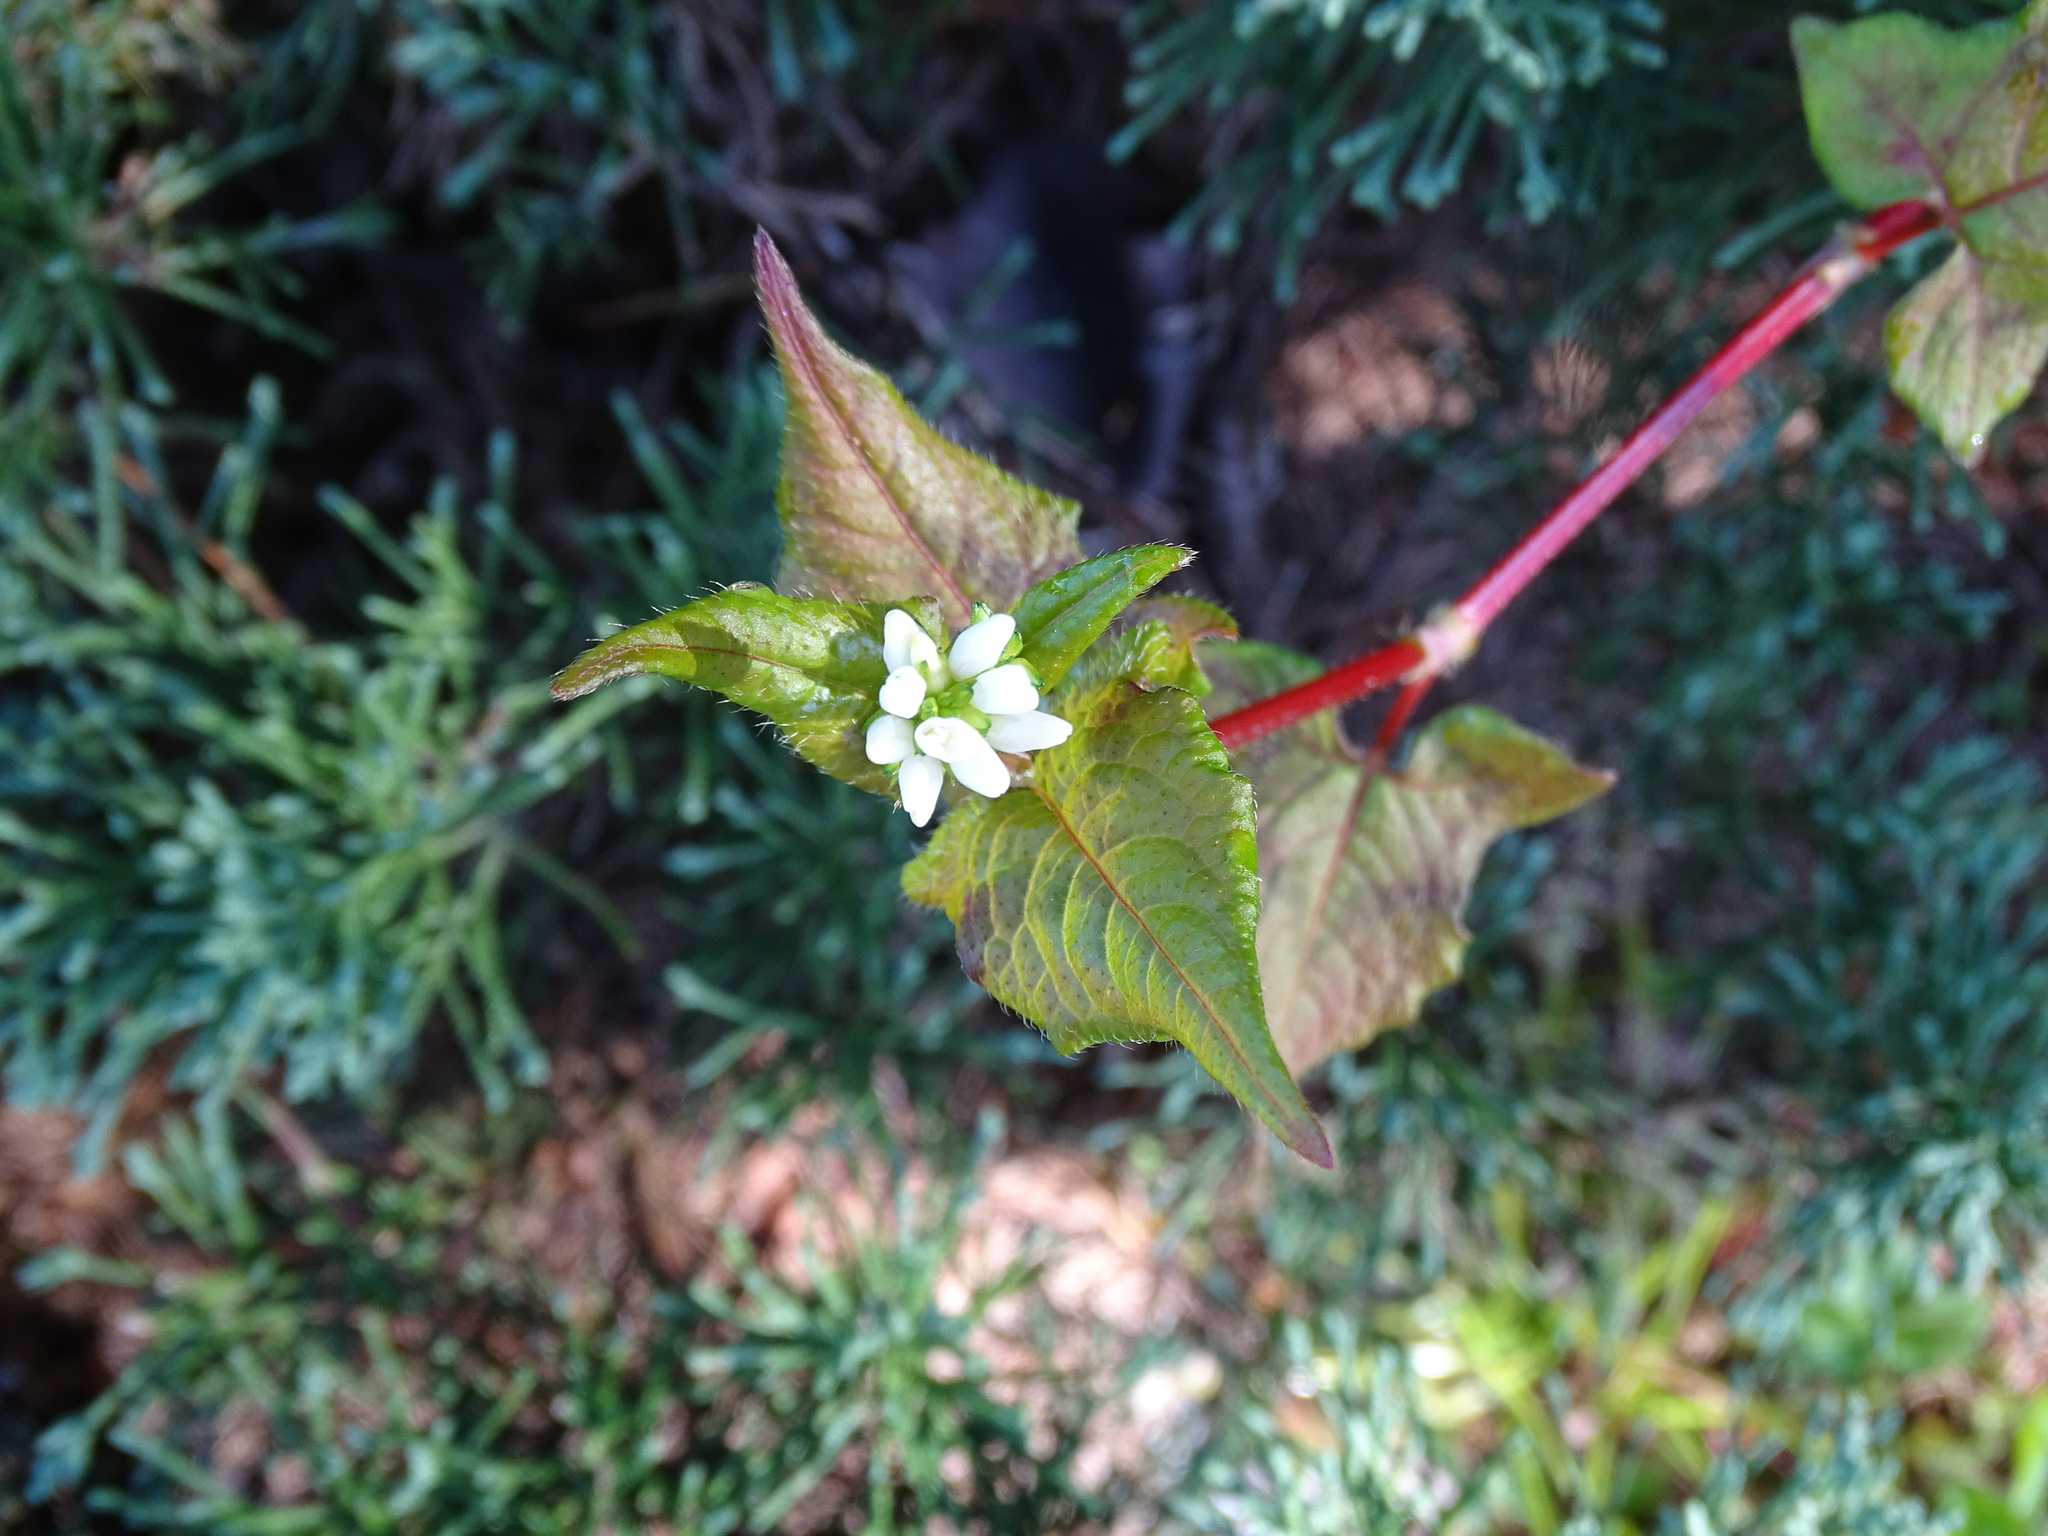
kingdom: Plantae
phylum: Tracheophyta
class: Magnoliopsida
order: Caryophyllales
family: Polygonaceae
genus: Persicaria
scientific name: Persicaria biconvexa
